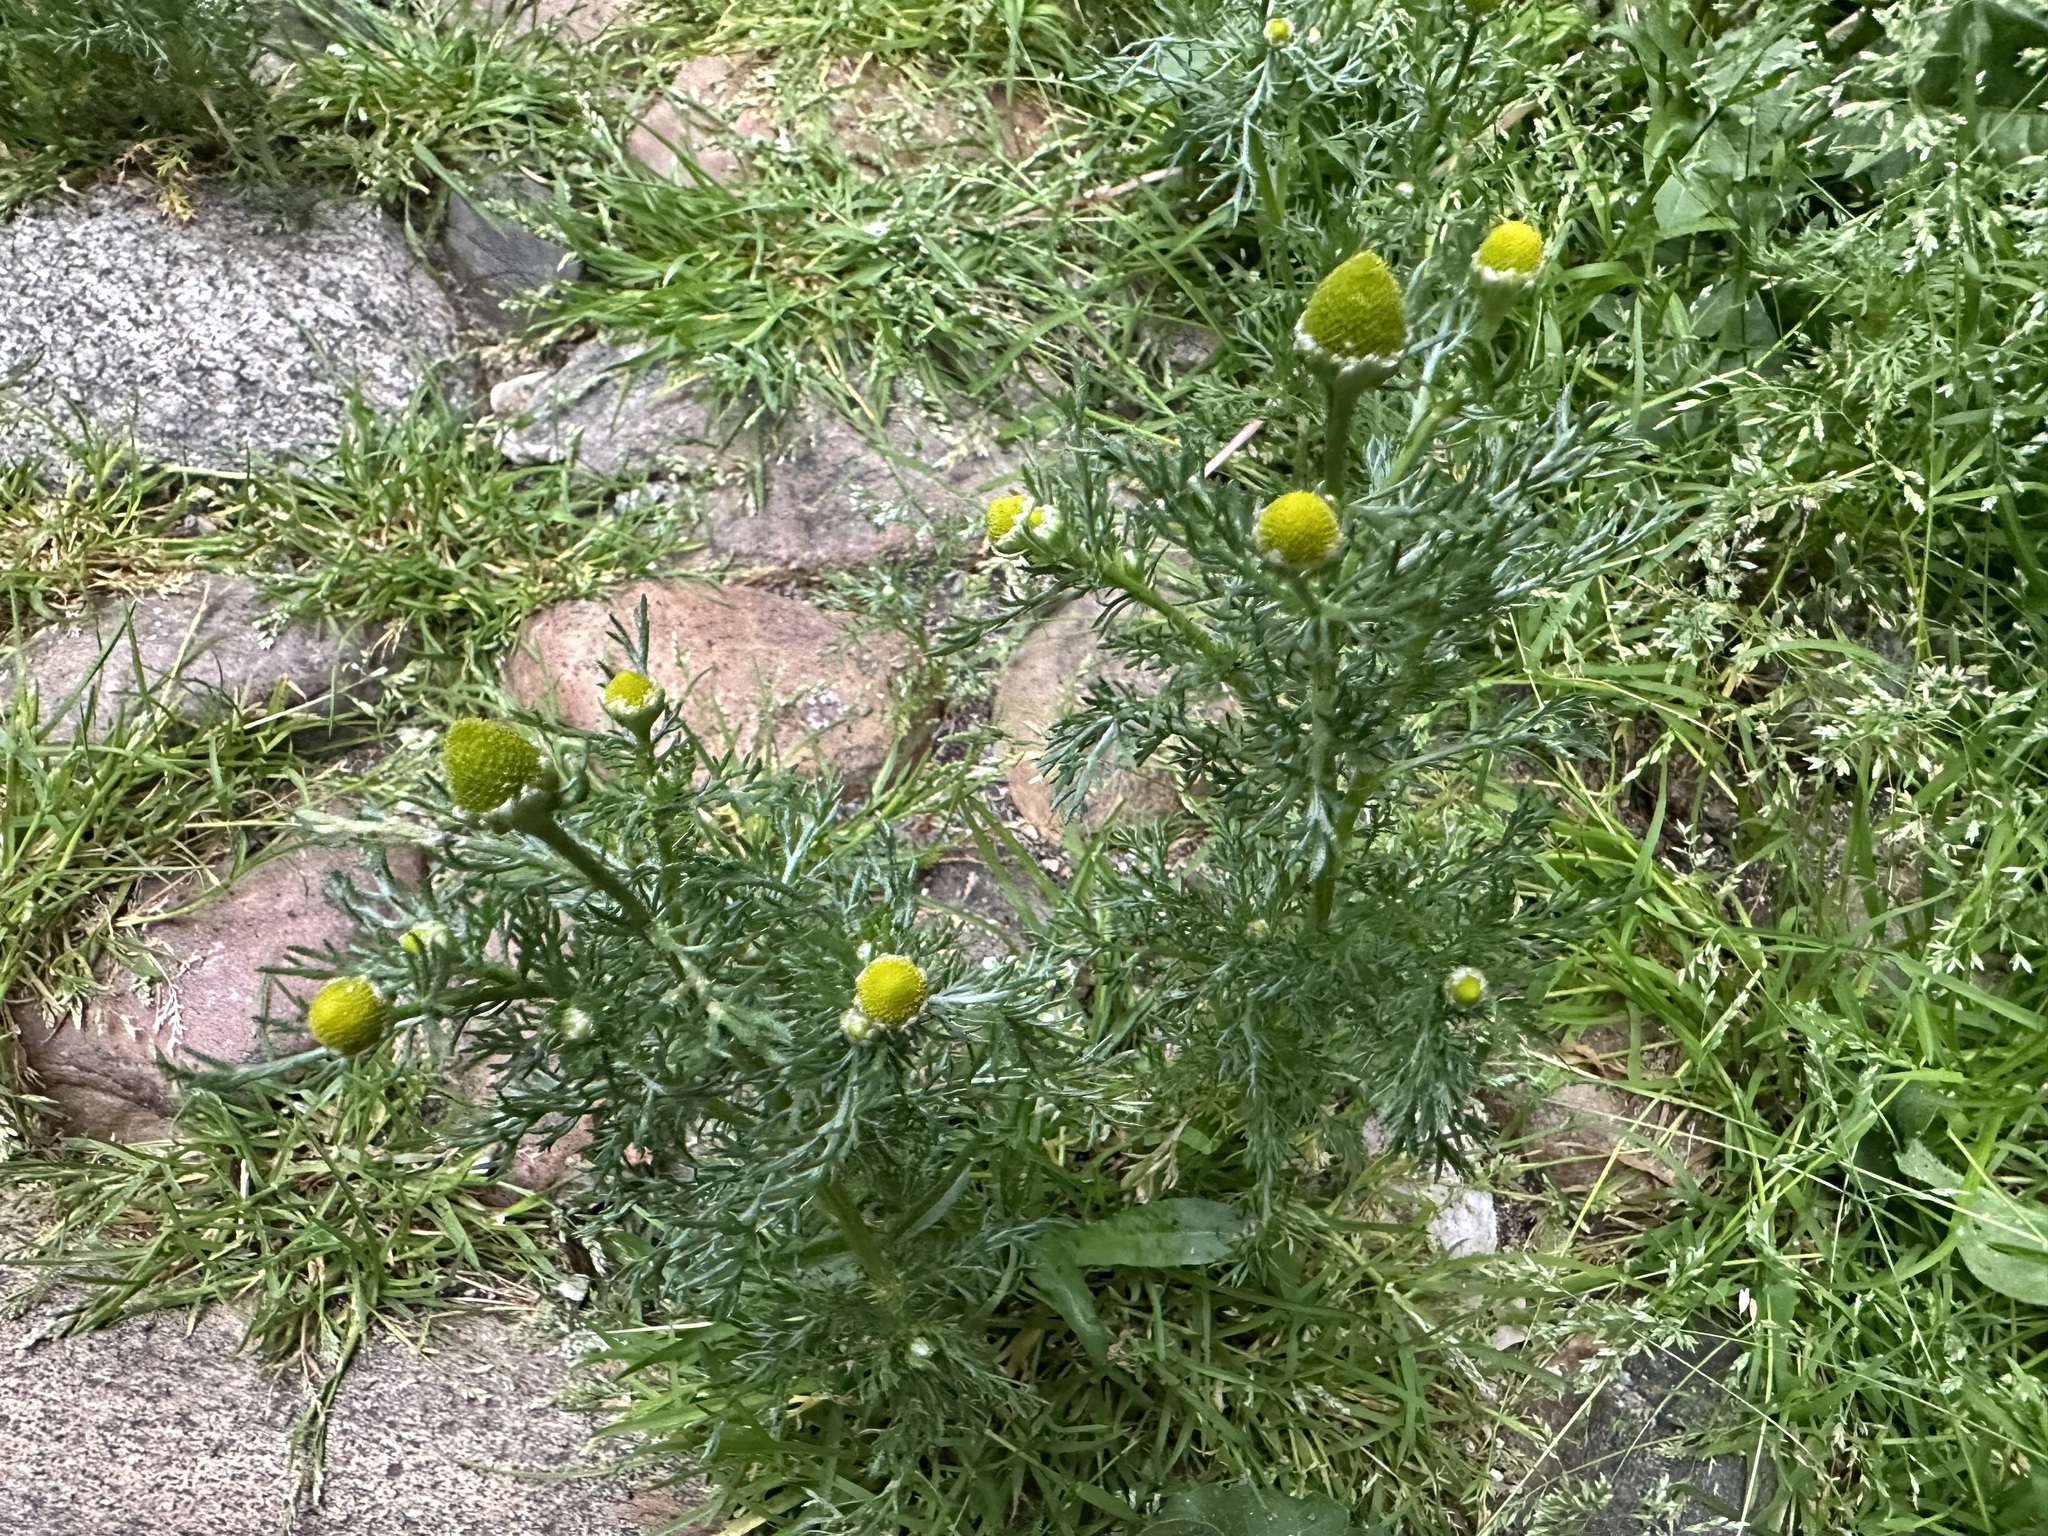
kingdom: Plantae
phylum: Tracheophyta
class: Magnoliopsida
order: Asterales
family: Asteraceae
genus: Matricaria
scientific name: Matricaria discoidea
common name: Disc mayweed
